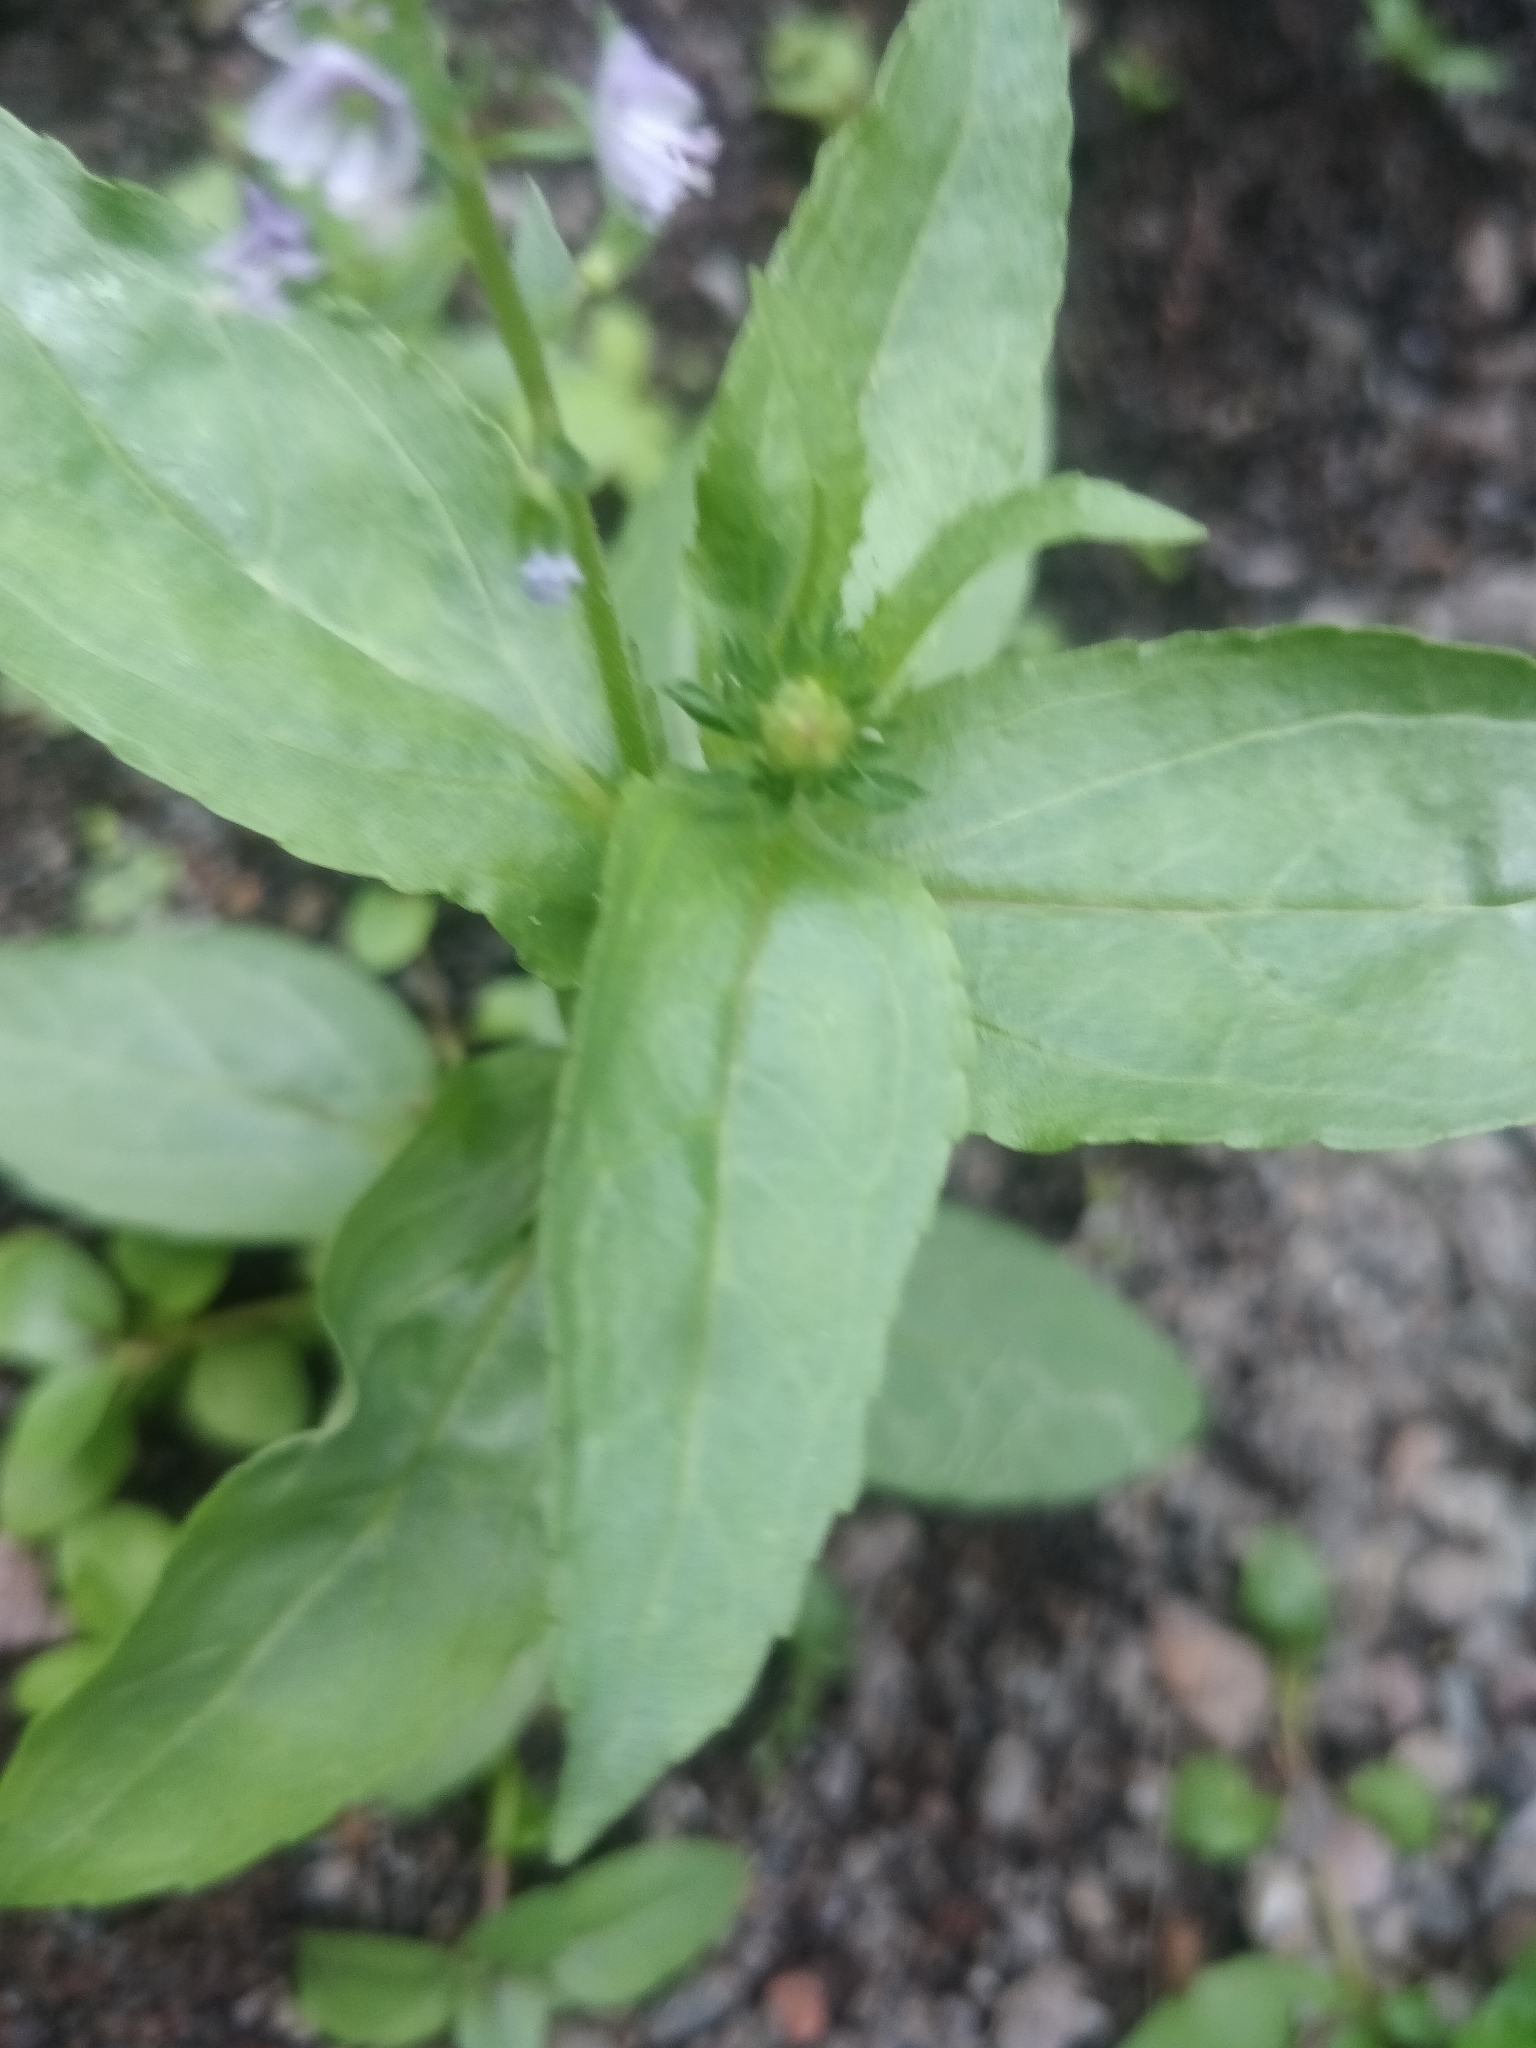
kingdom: Plantae
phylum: Tracheophyta
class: Magnoliopsida
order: Lamiales
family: Plantaginaceae
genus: Veronica
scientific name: Veronica anagallis-aquatica
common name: Water speedwell
